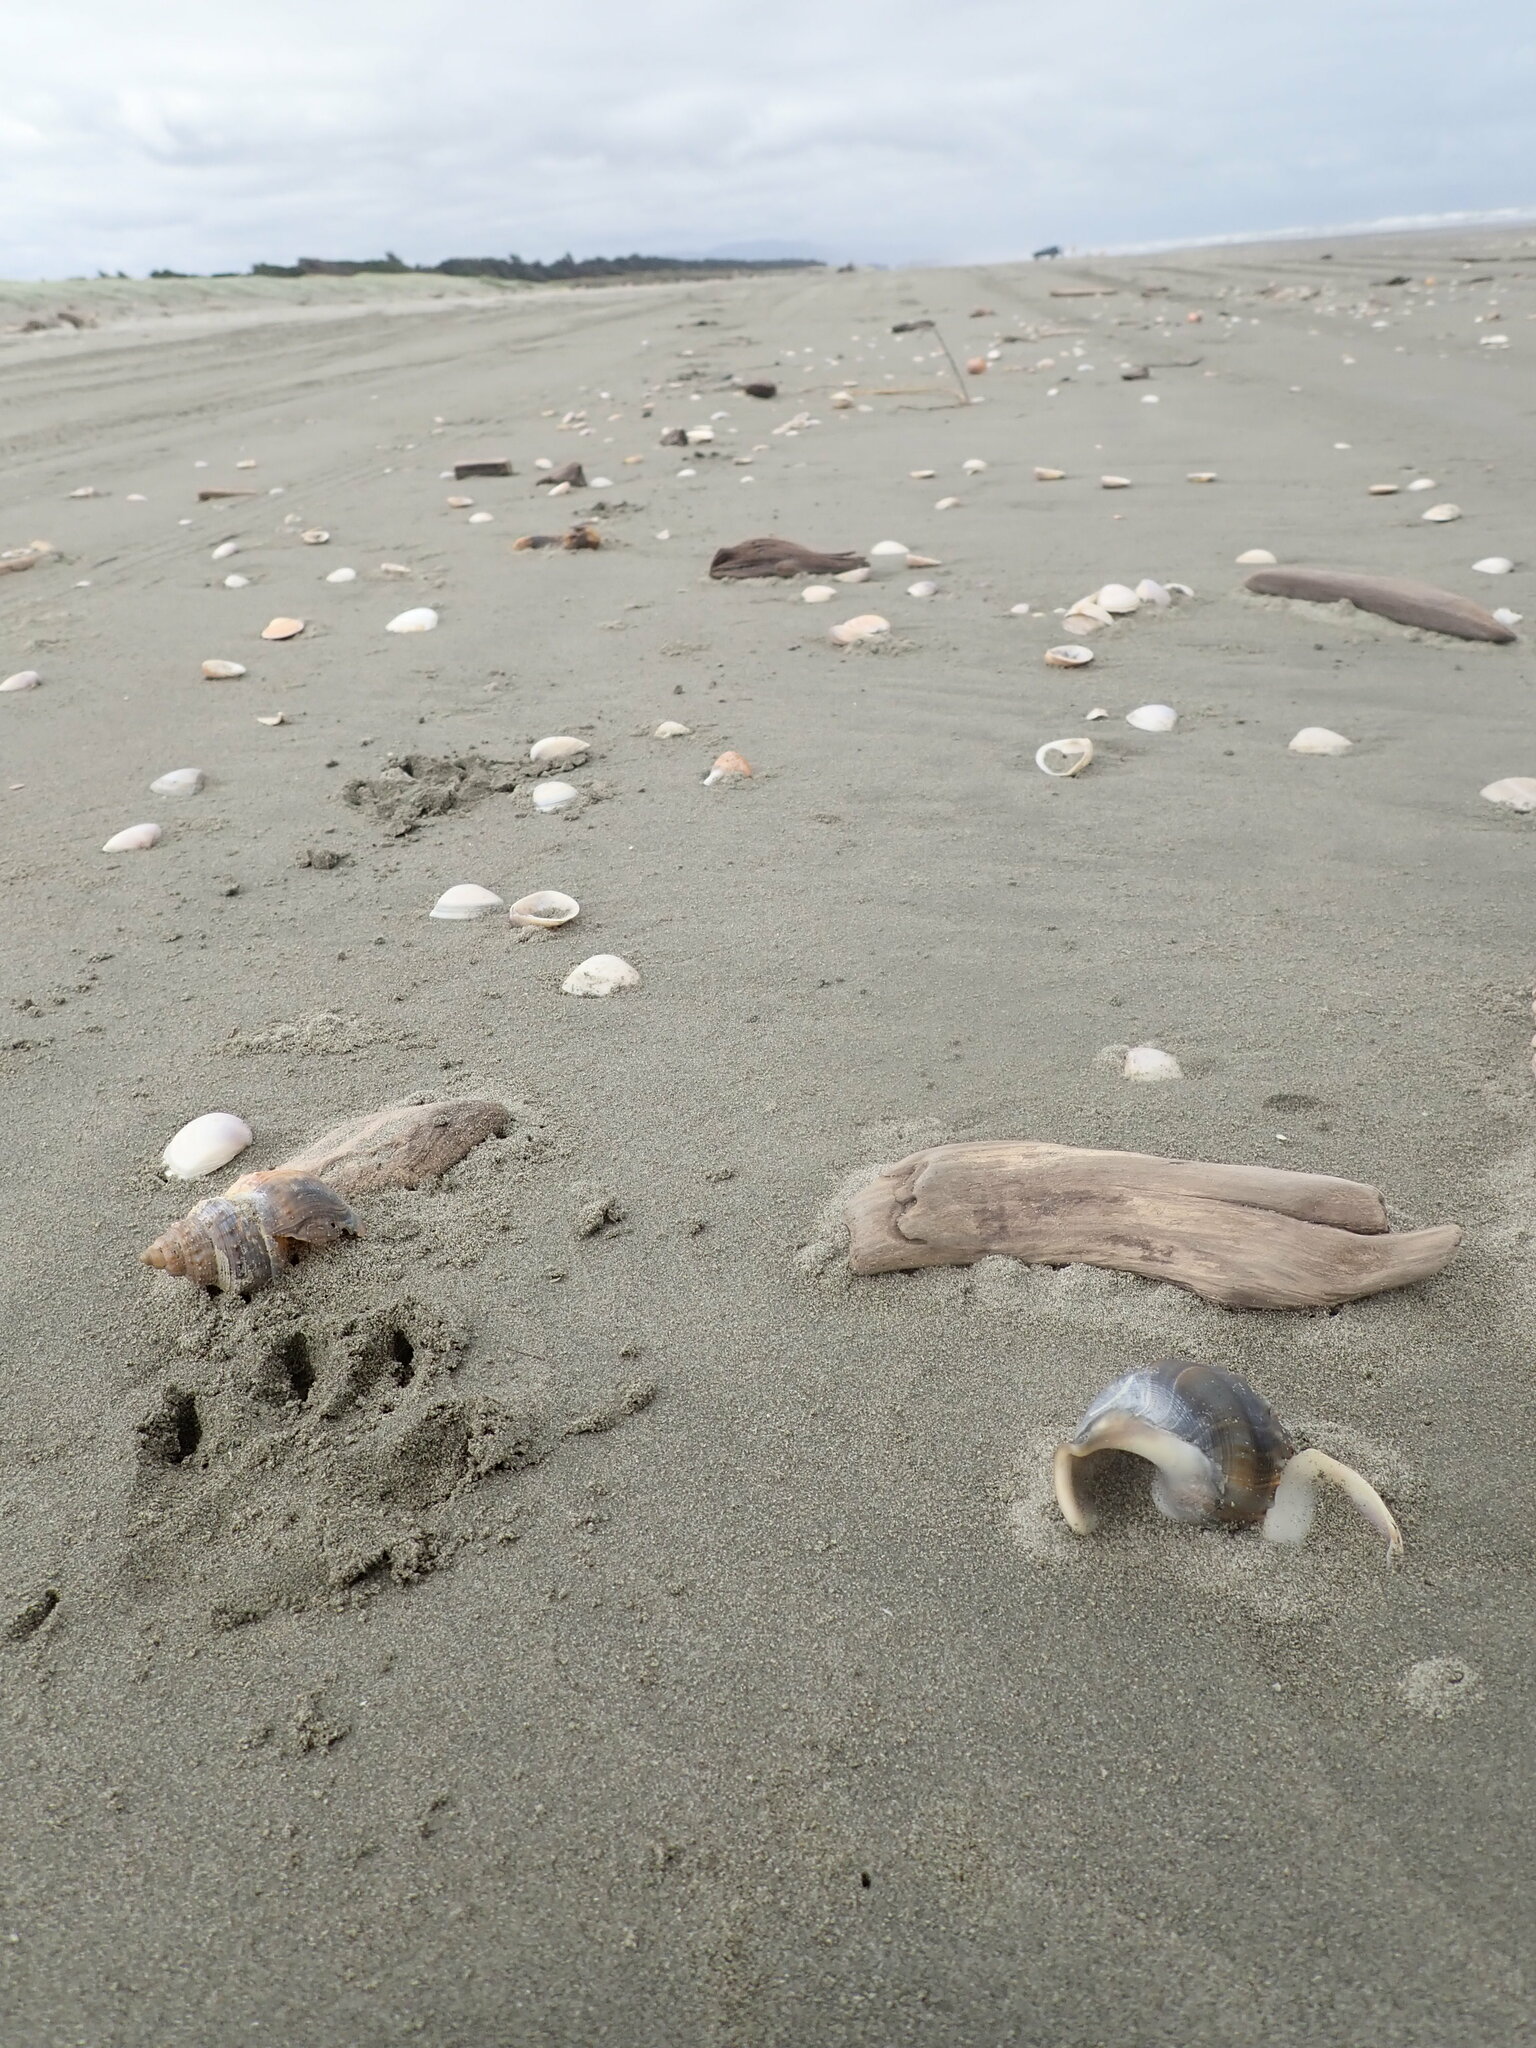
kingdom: Animalia
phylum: Mollusca
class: Gastropoda
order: Littorinimorpha
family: Struthiolariidae
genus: Struthiolaria
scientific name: Struthiolaria papulosa
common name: Large ostrich foot
